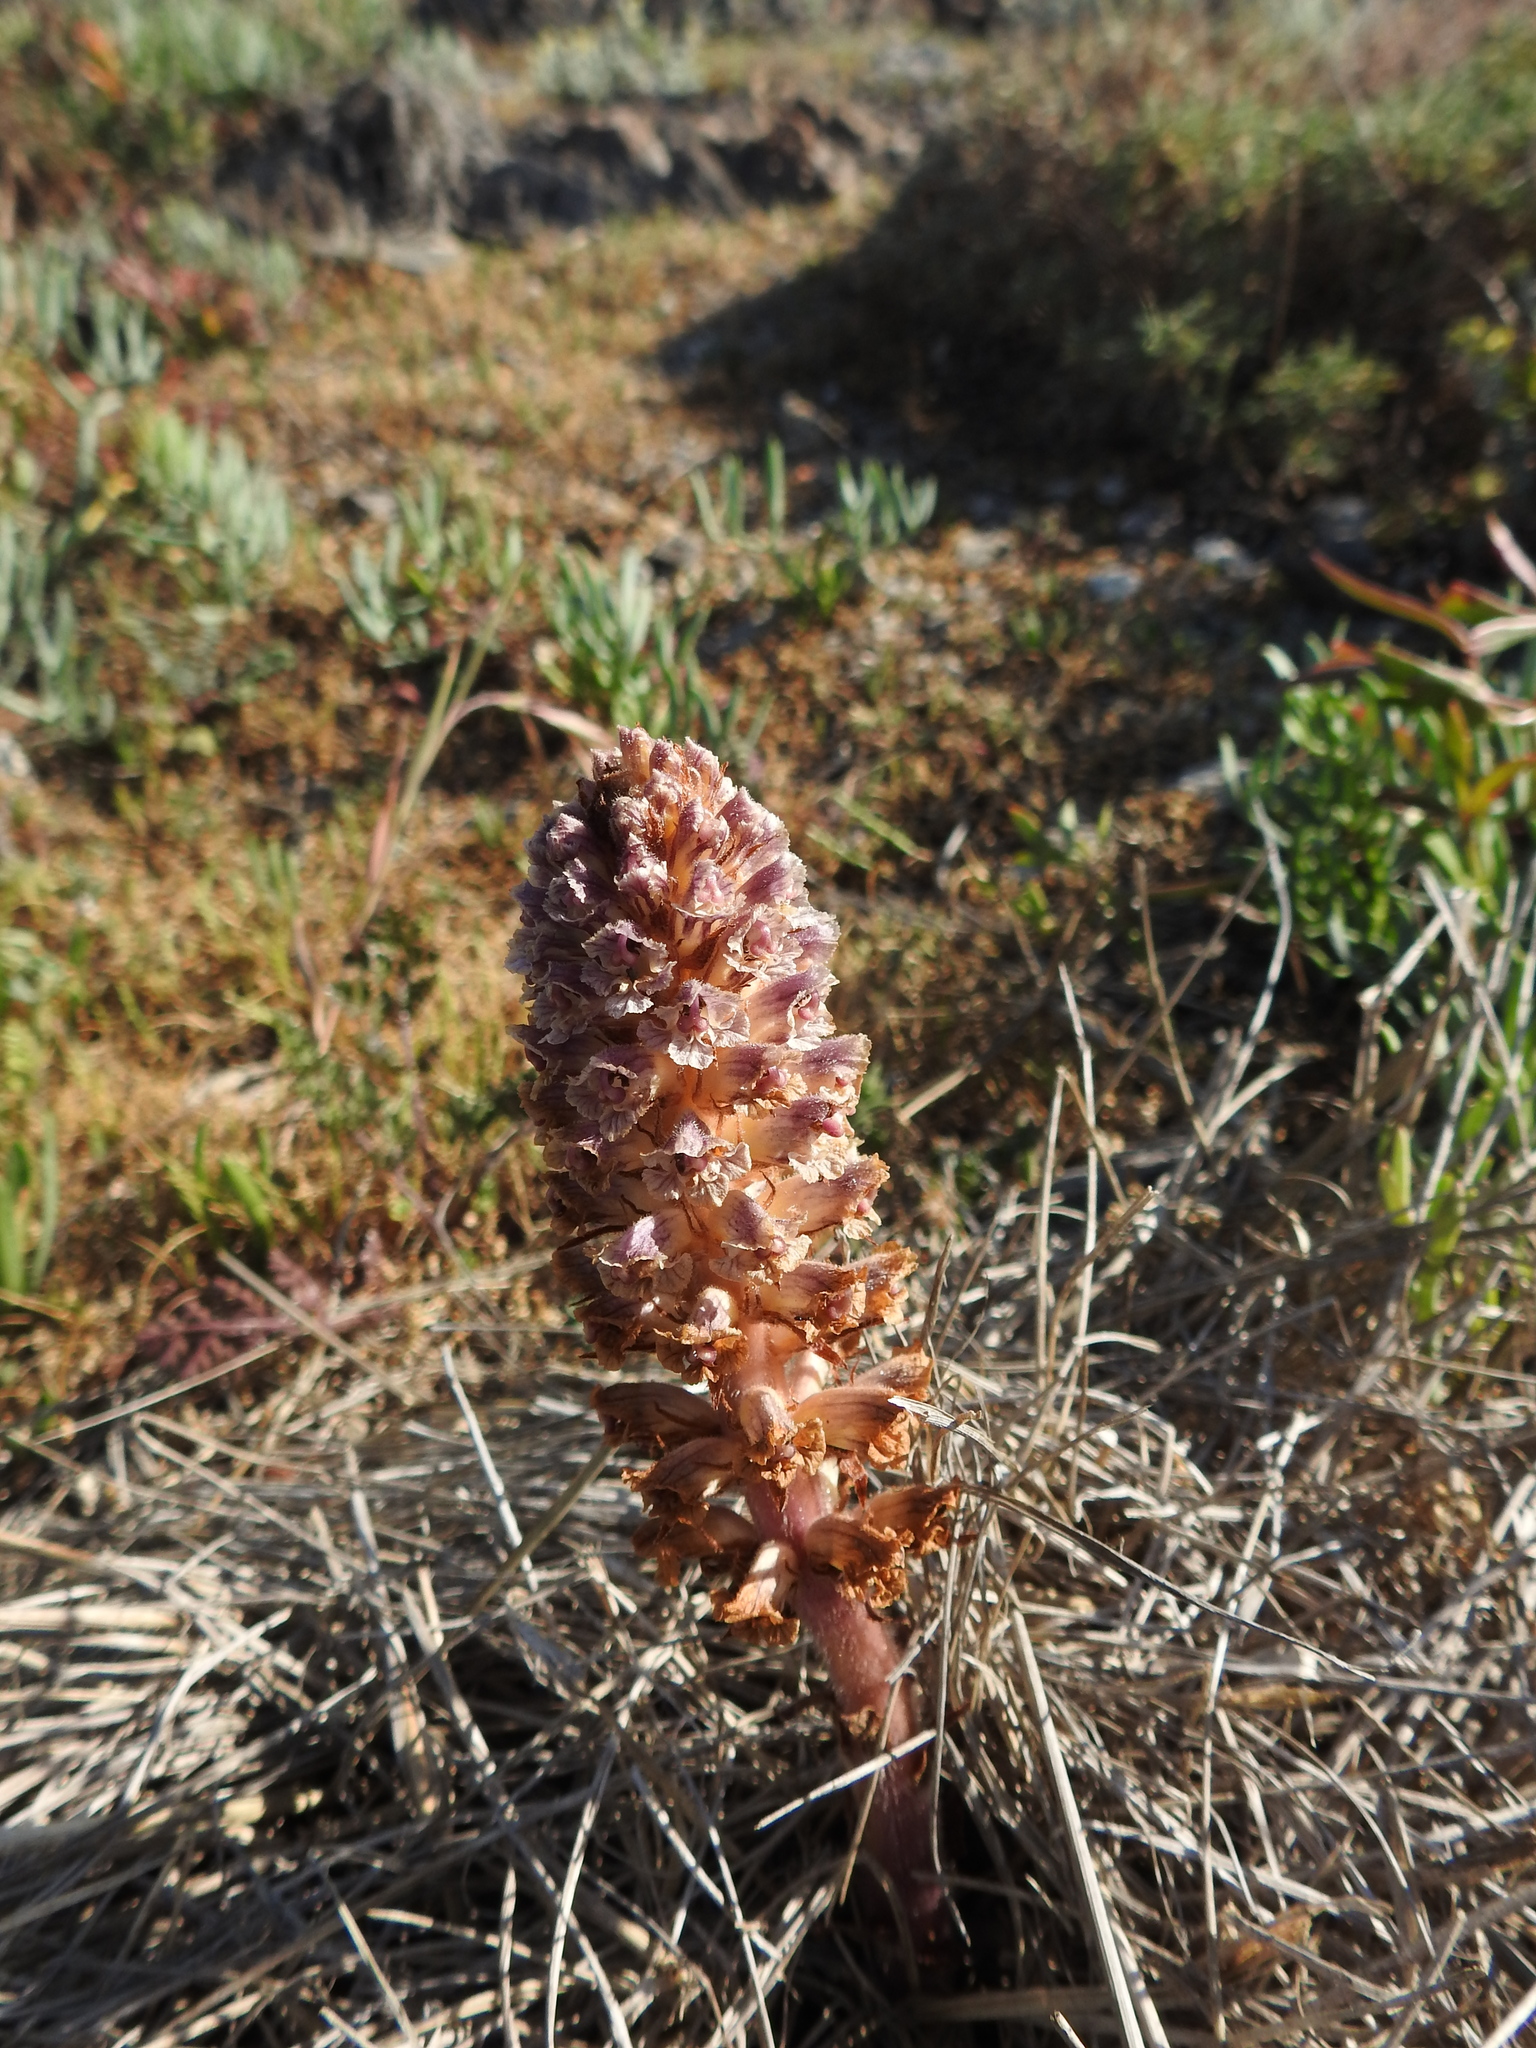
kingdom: Plantae
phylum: Tracheophyta
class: Magnoliopsida
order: Lamiales
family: Orobanchaceae
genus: Orobanche
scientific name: Orobanche minor
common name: Common broomrape
